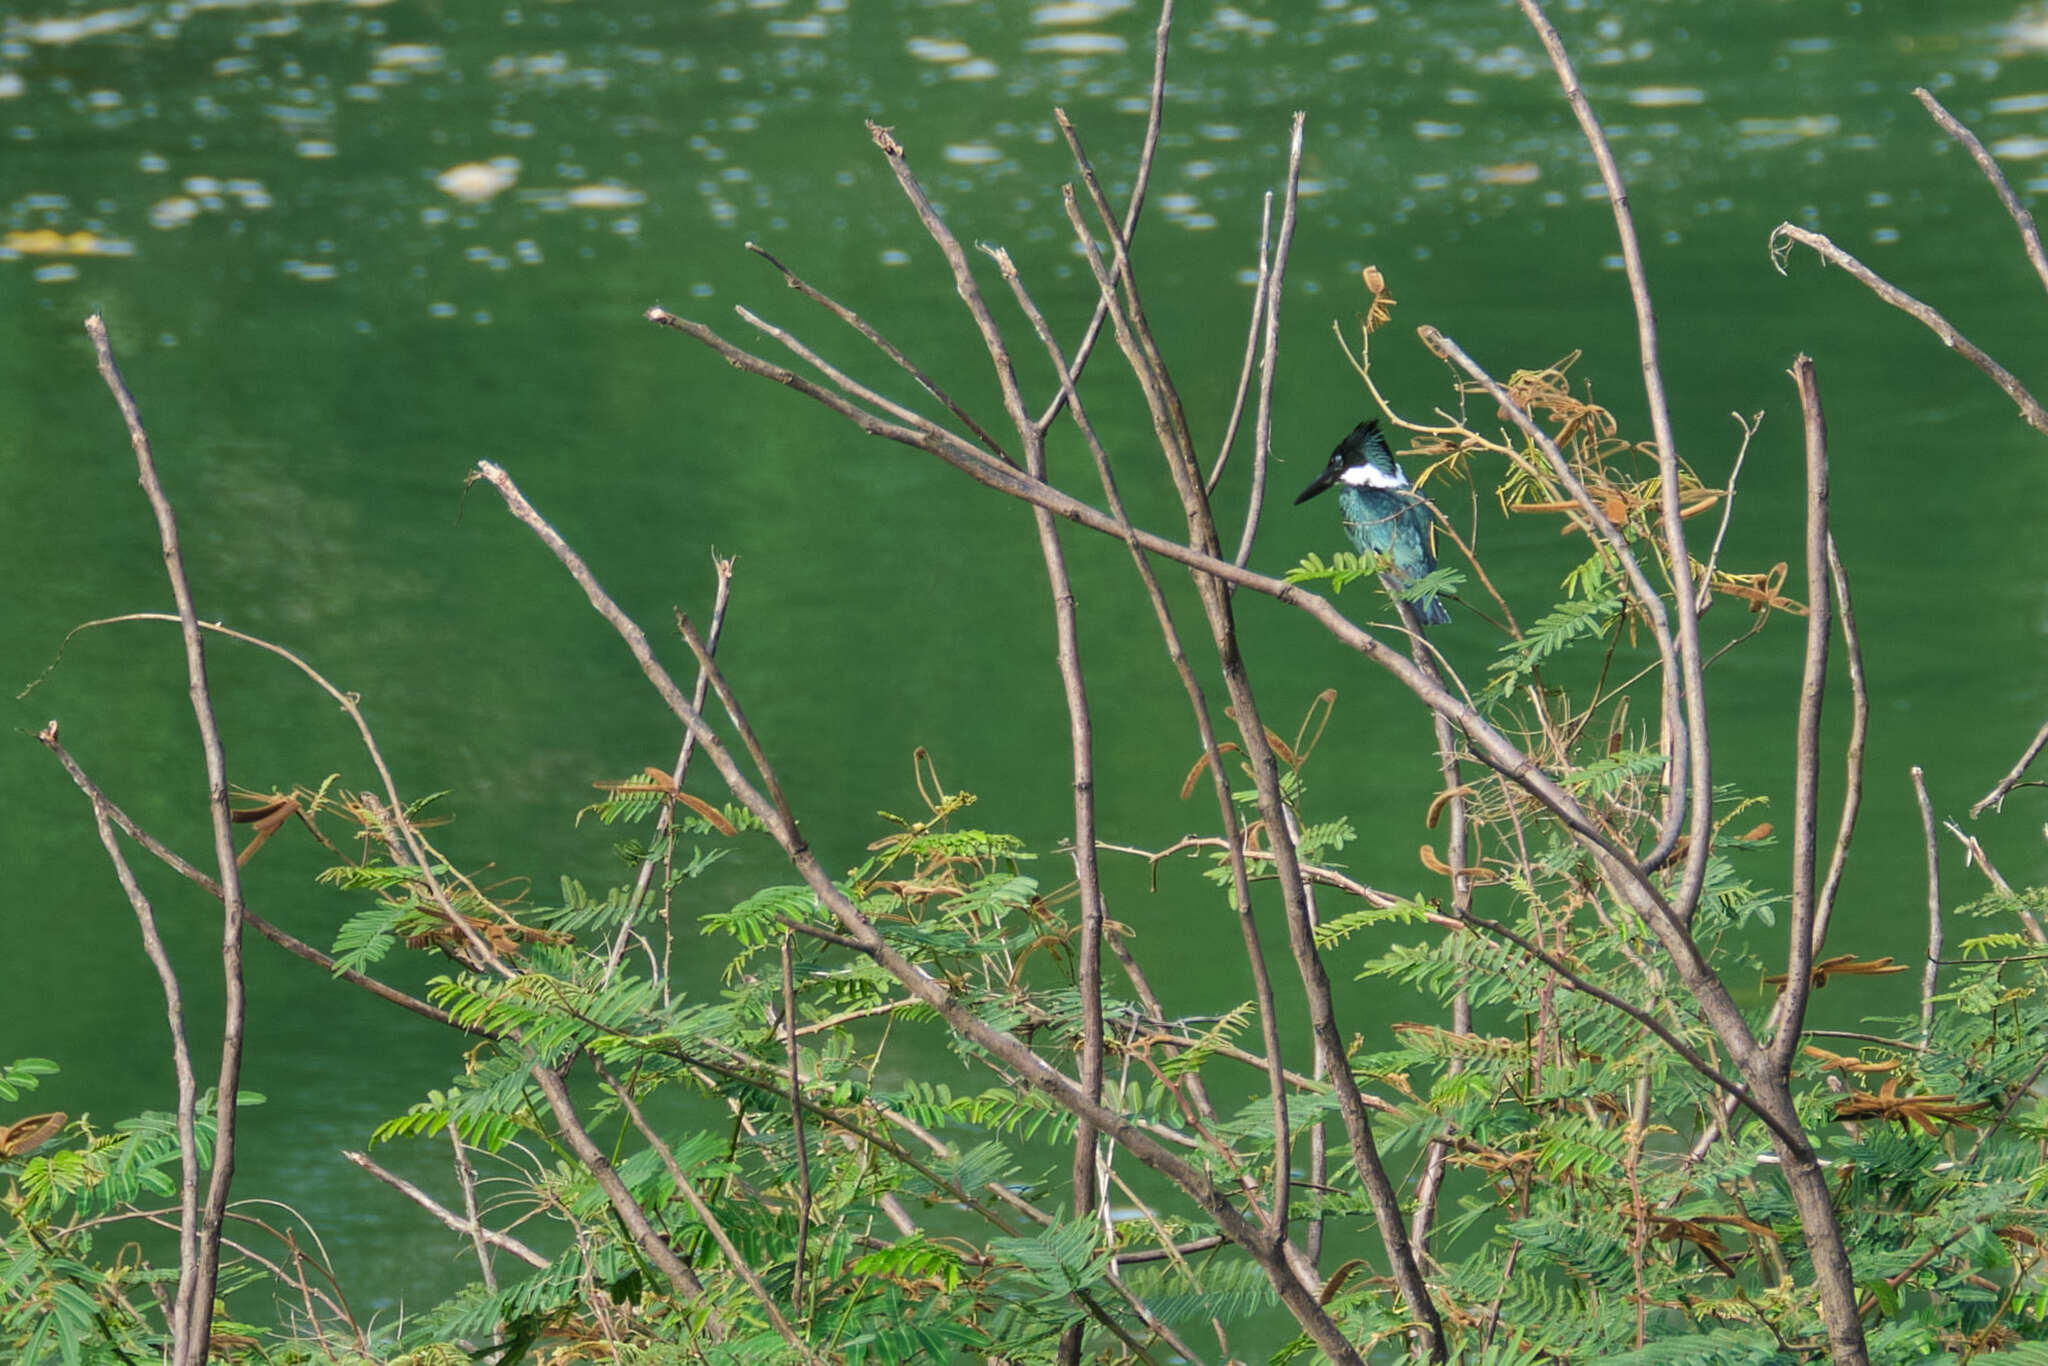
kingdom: Animalia
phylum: Chordata
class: Aves
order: Coraciiformes
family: Alcedinidae
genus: Chloroceryle
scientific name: Chloroceryle americana
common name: Green kingfisher
